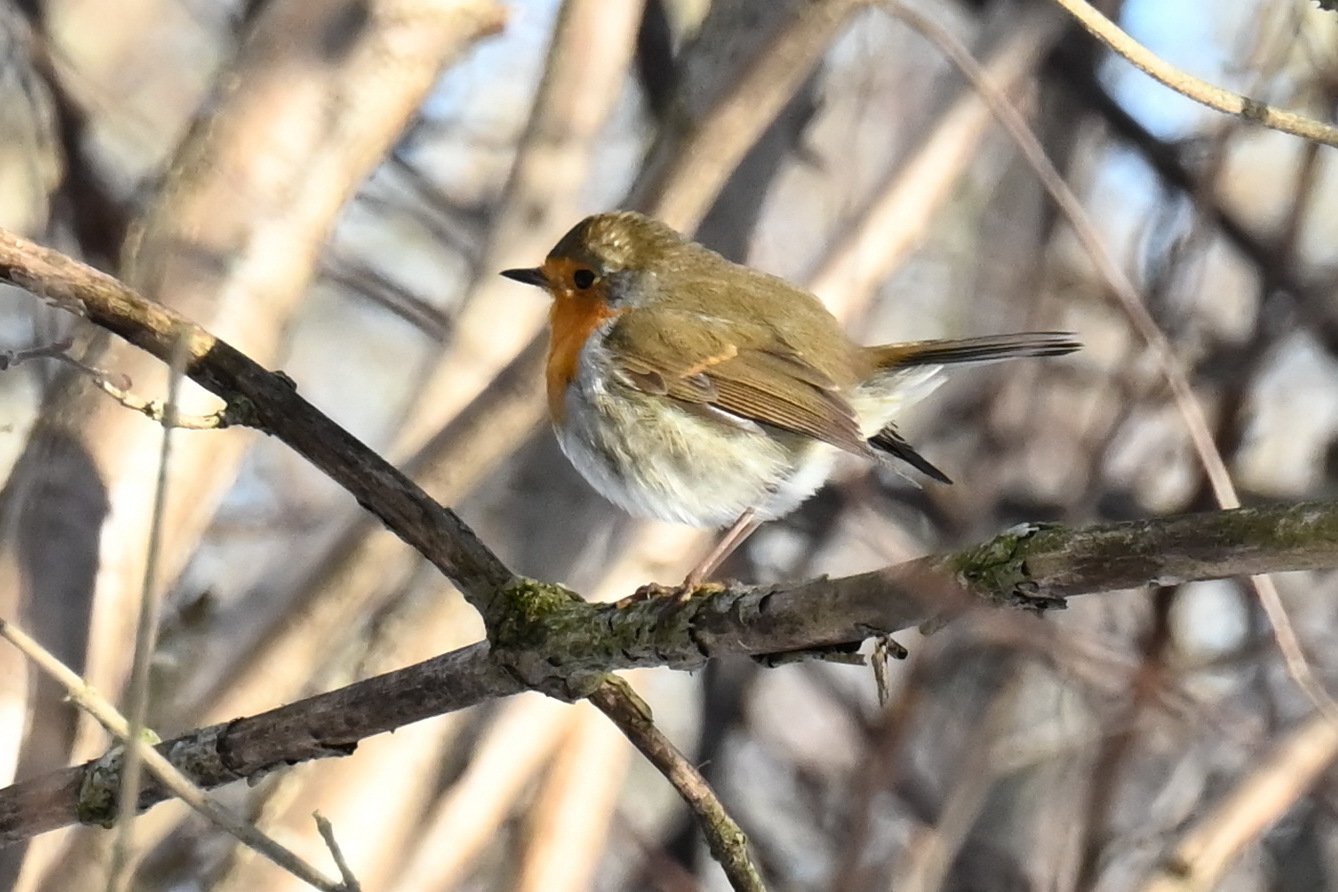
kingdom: Animalia
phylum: Chordata
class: Aves
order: Passeriformes
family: Muscicapidae
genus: Erithacus
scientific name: Erithacus rubecula
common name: European robin
